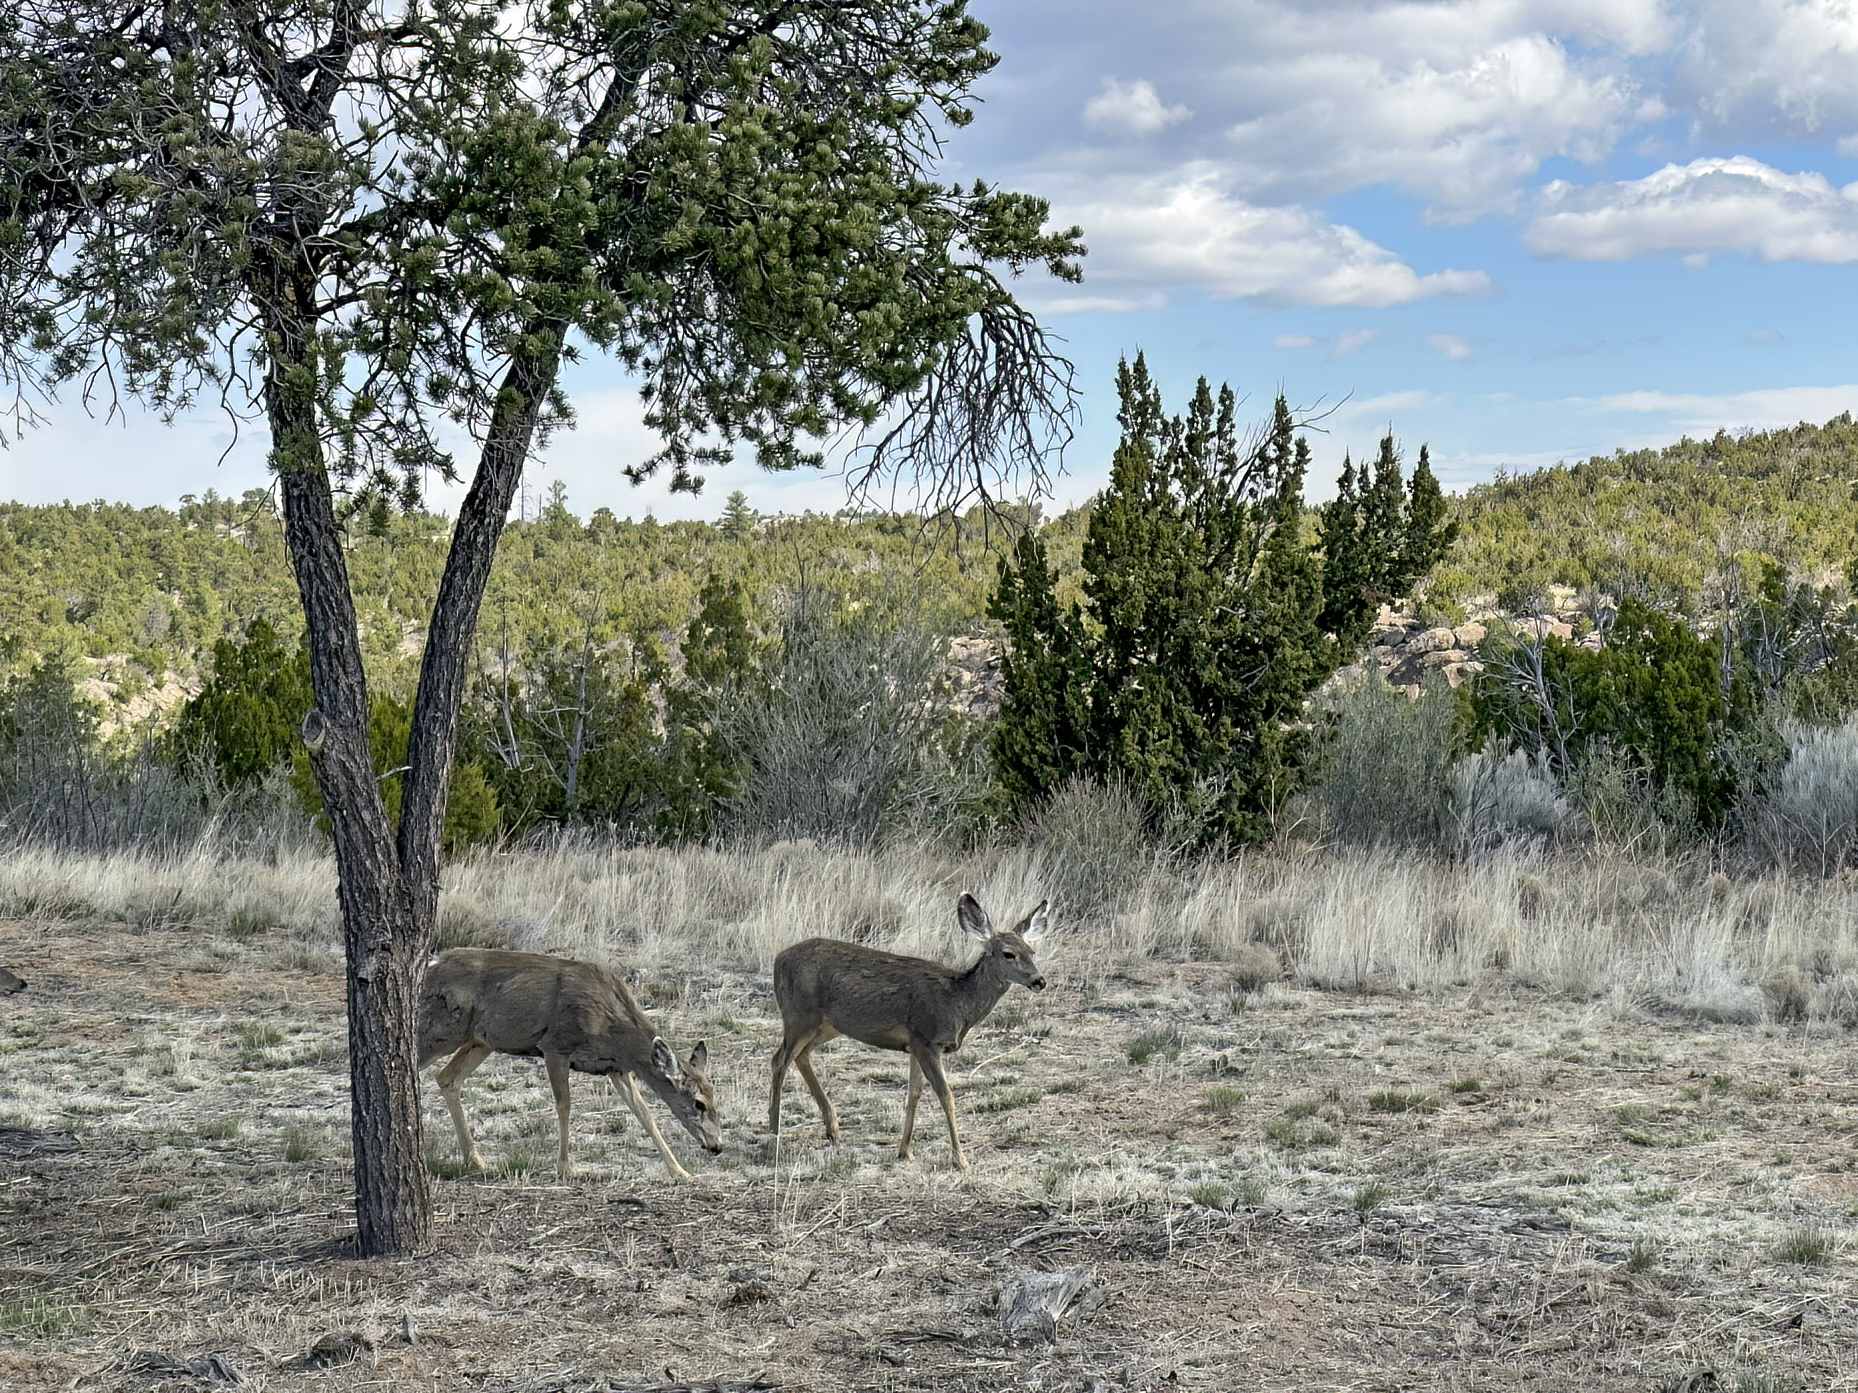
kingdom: Animalia
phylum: Chordata
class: Mammalia
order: Artiodactyla
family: Cervidae
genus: Odocoileus
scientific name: Odocoileus hemionus
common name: Mule deer
